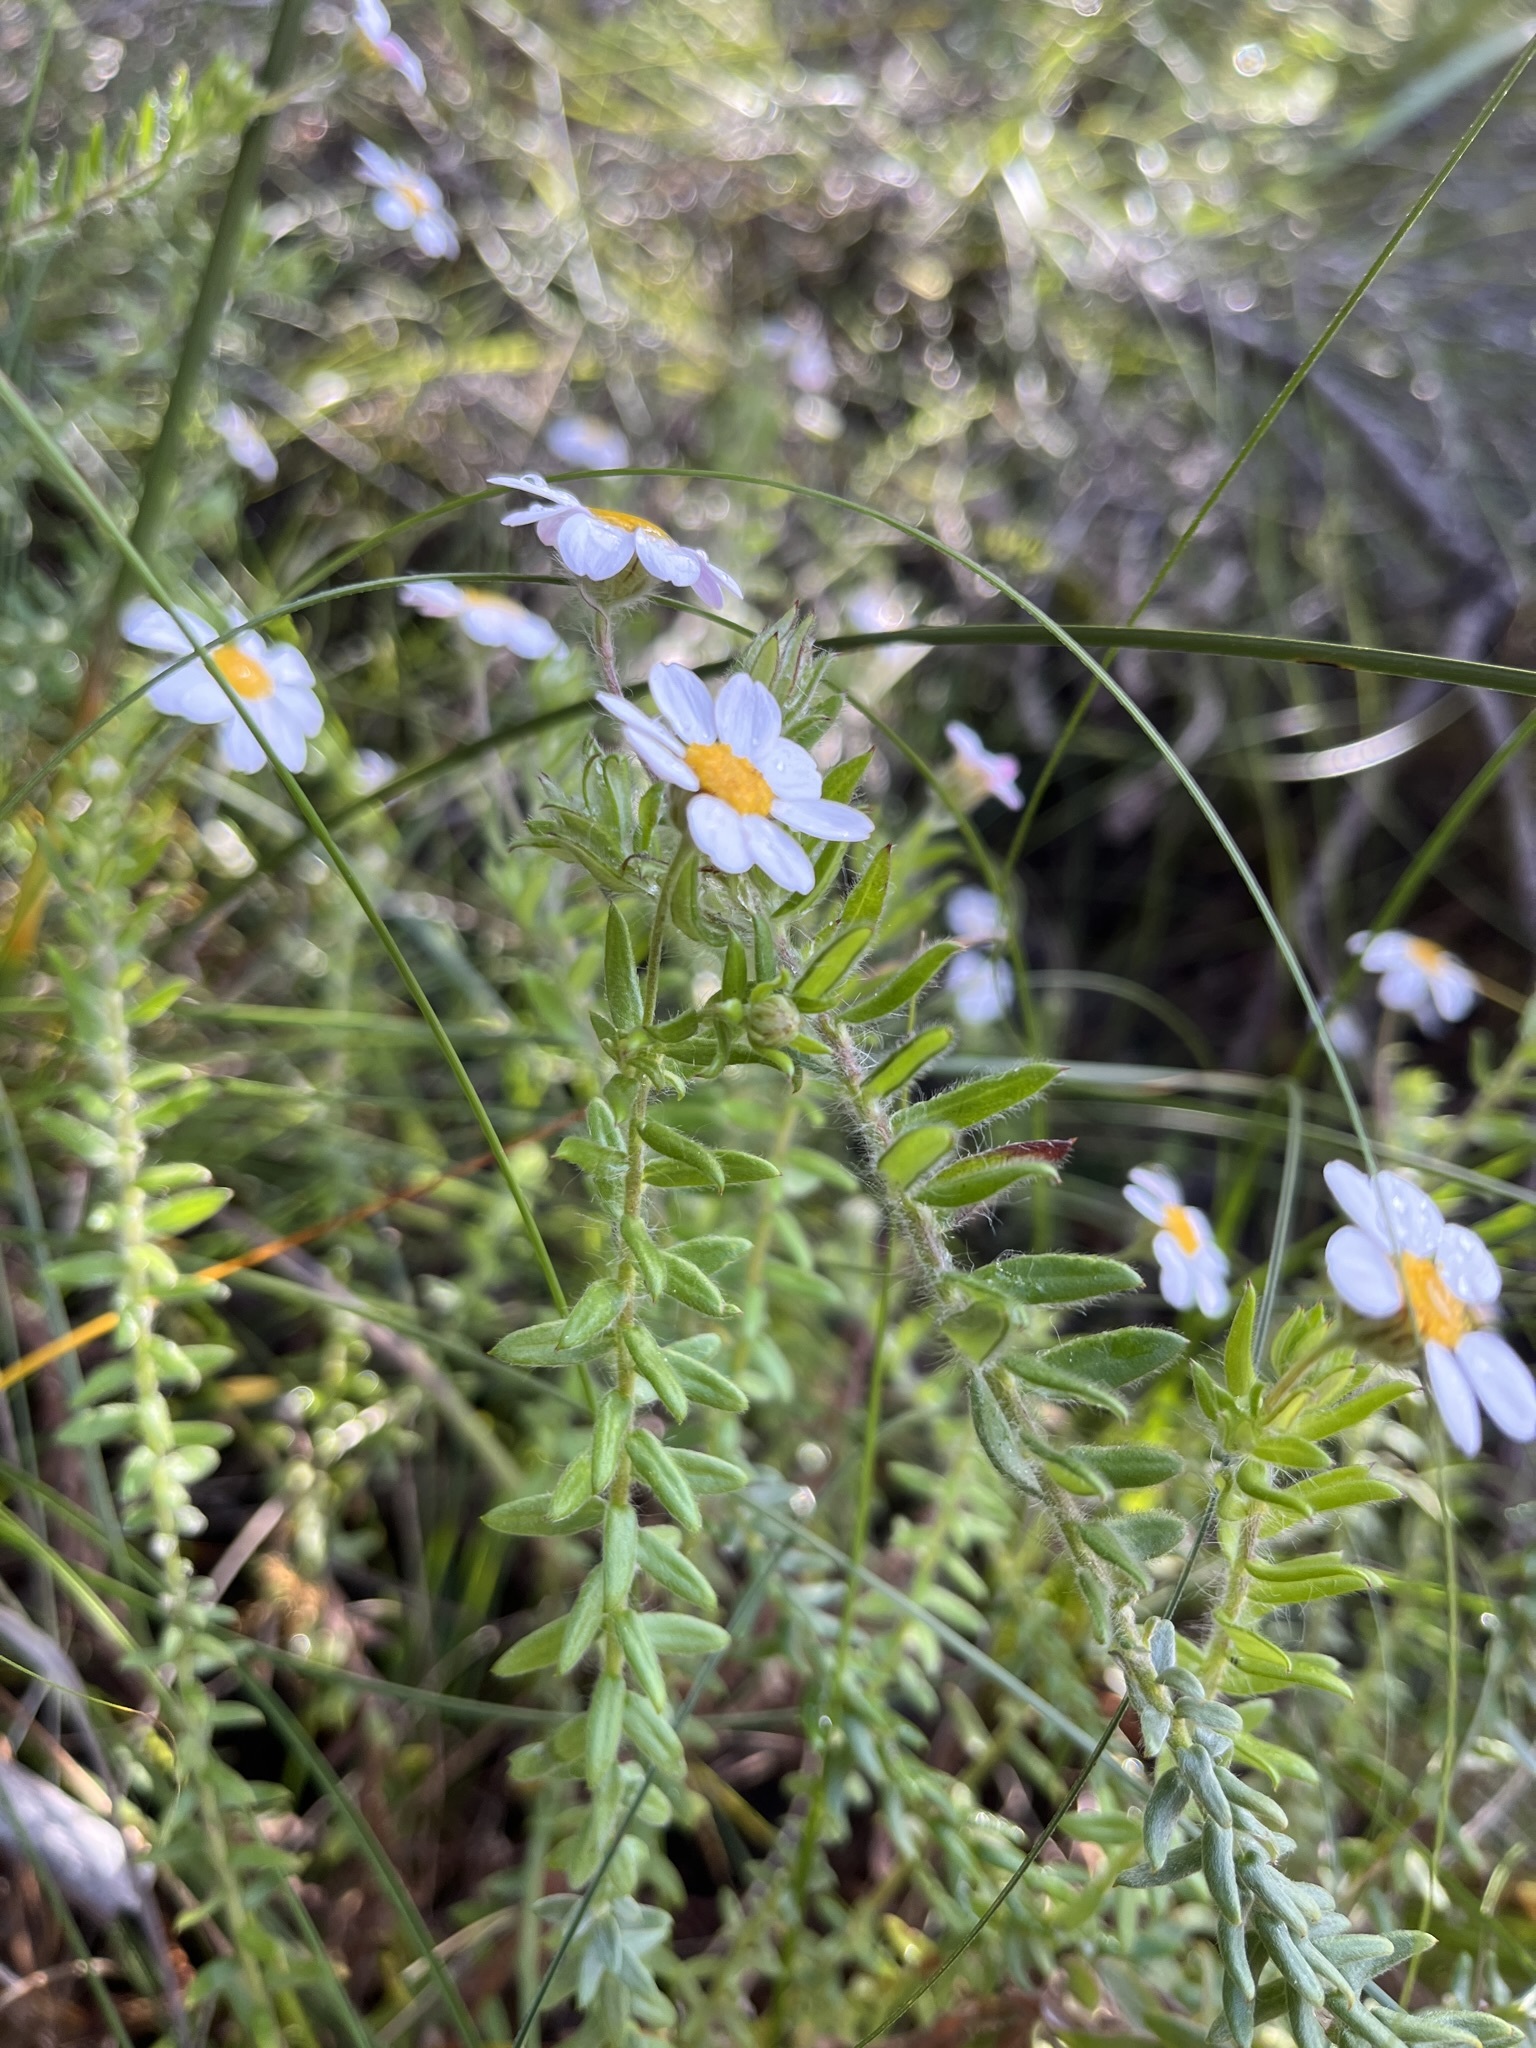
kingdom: Plantae
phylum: Tracheophyta
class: Magnoliopsida
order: Asterales
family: Asteraceae
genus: Thaminophyllum
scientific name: Thaminophyllum latifolium
